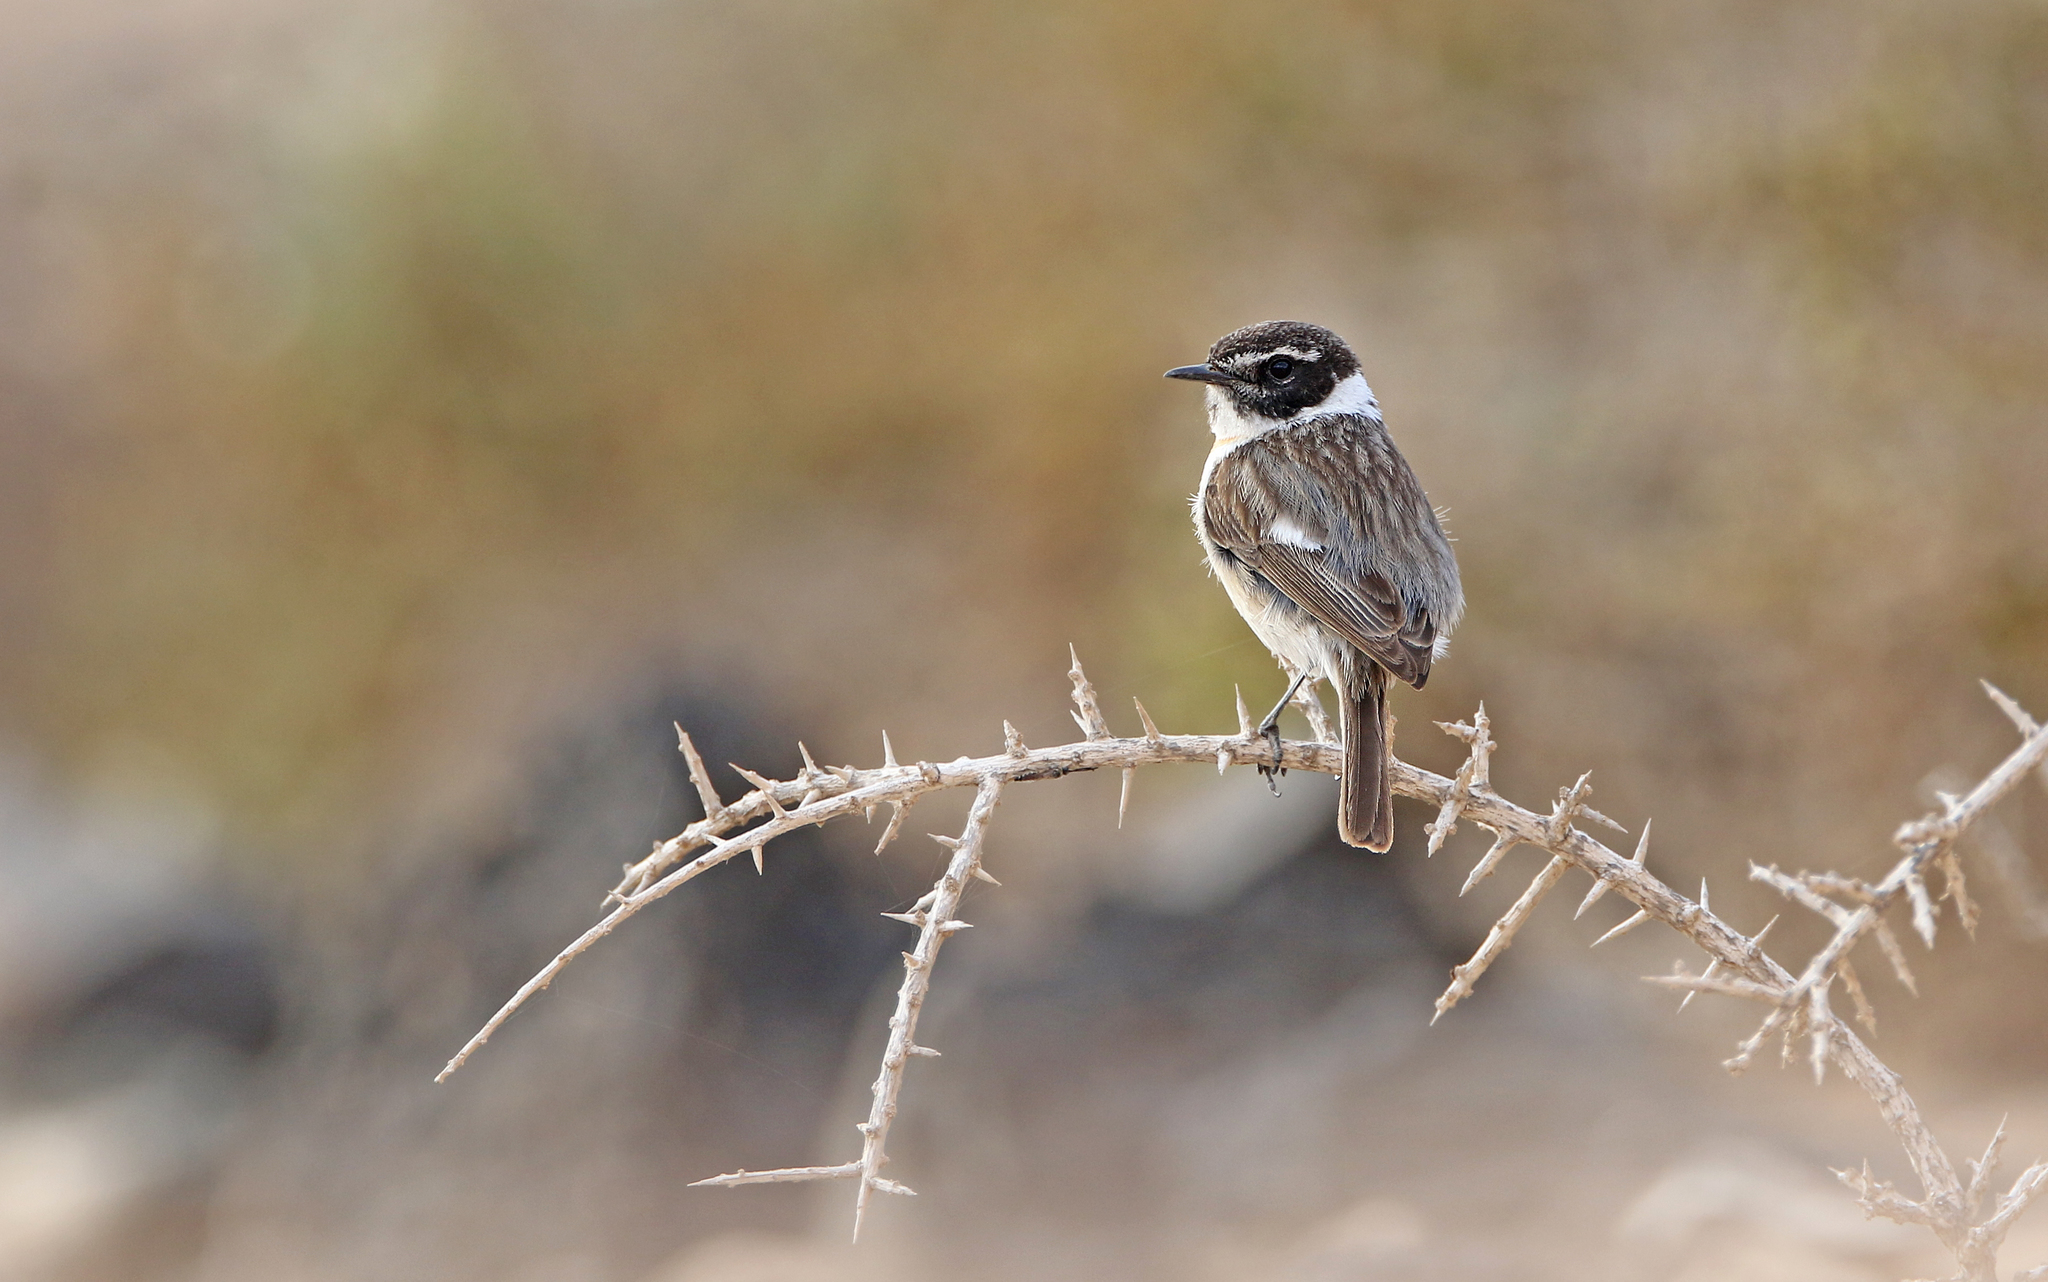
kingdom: Animalia
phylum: Chordata
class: Aves
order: Passeriformes
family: Muscicapidae
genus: Saxicola
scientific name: Saxicola dacotiae
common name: Canary islands stonechat
